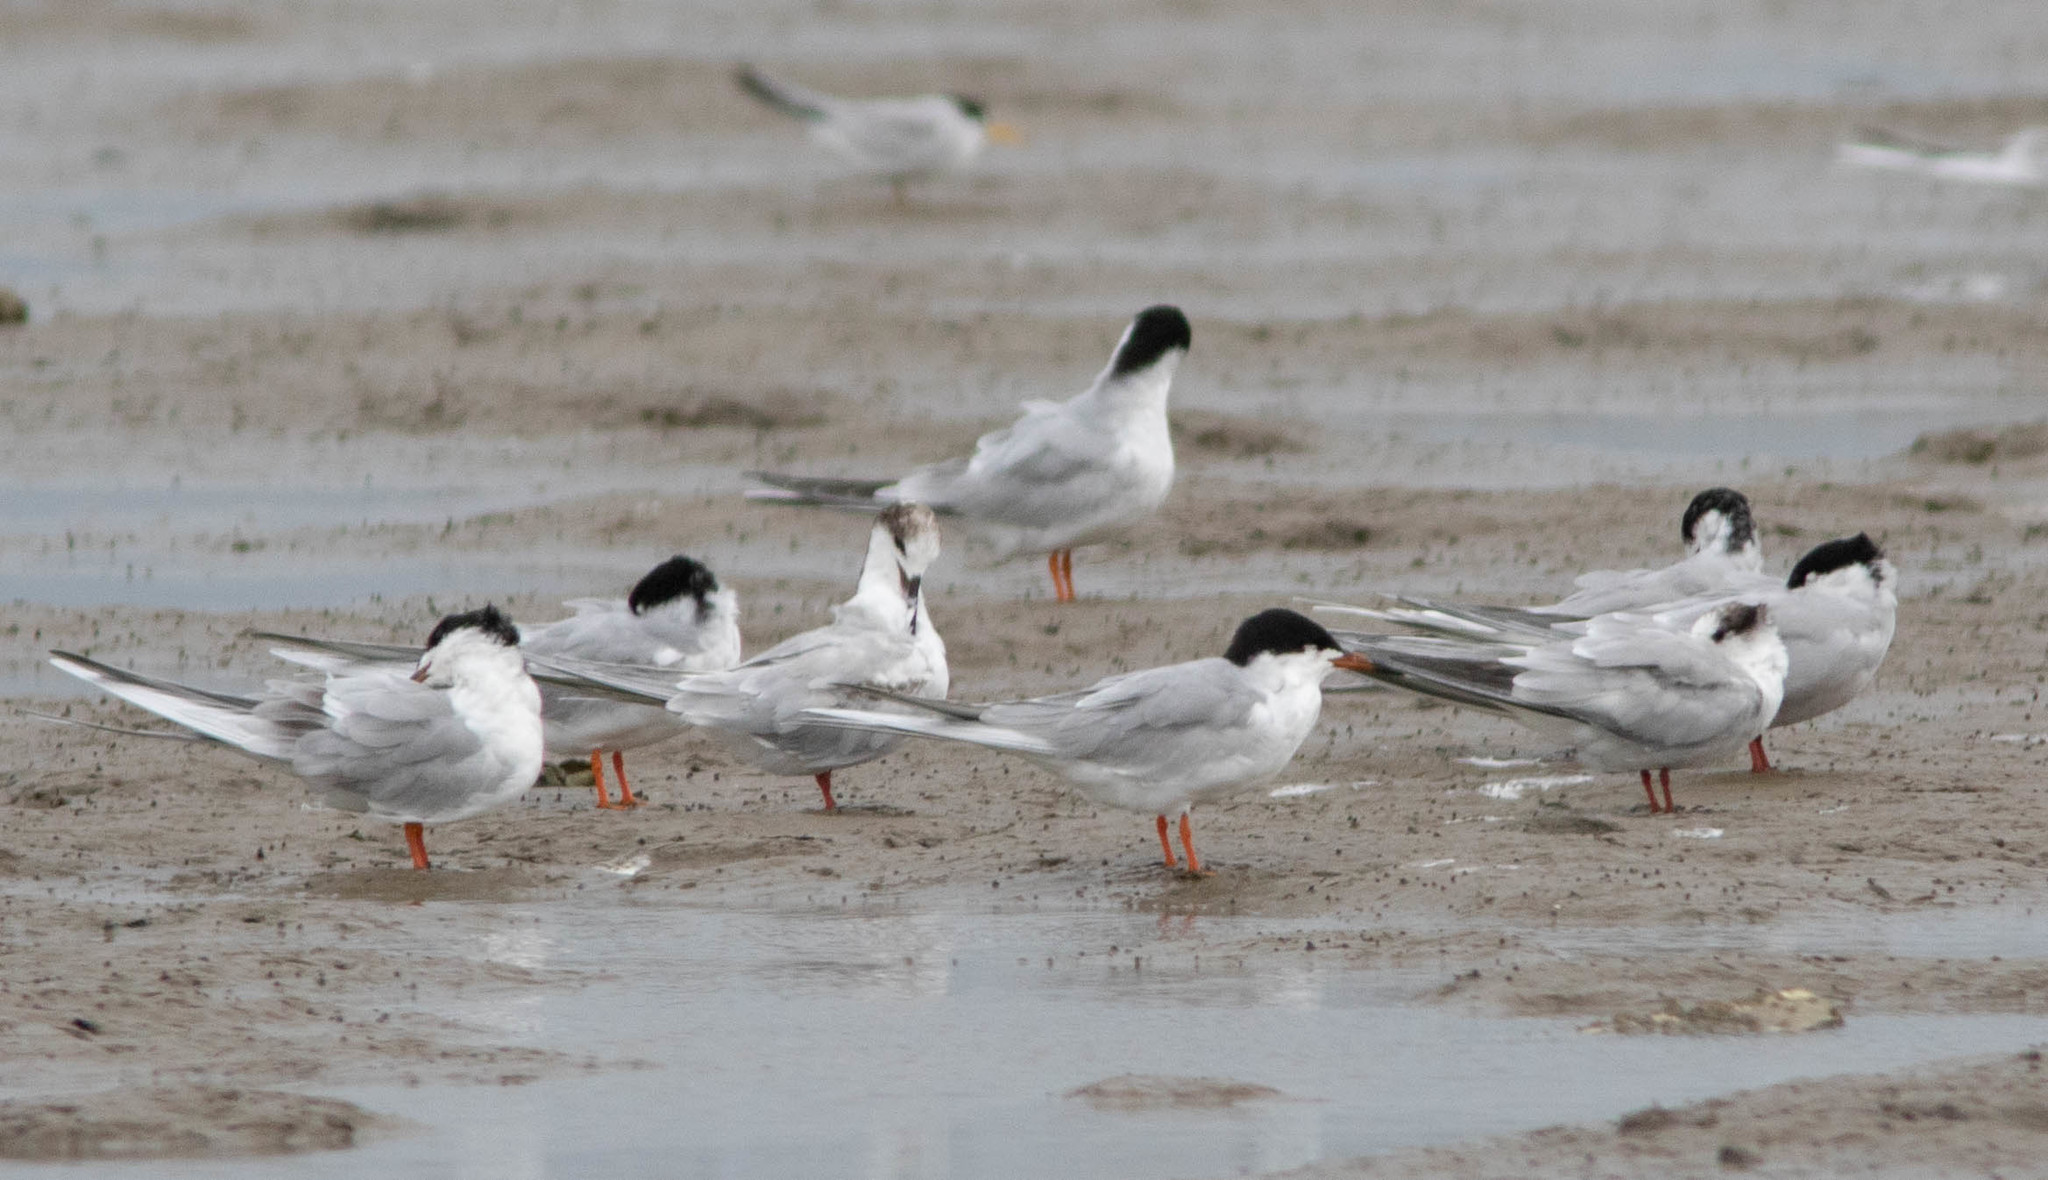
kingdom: Animalia
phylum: Chordata
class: Aves
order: Charadriiformes
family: Laridae
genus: Sterna
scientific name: Sterna forsteri
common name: Forster's tern
